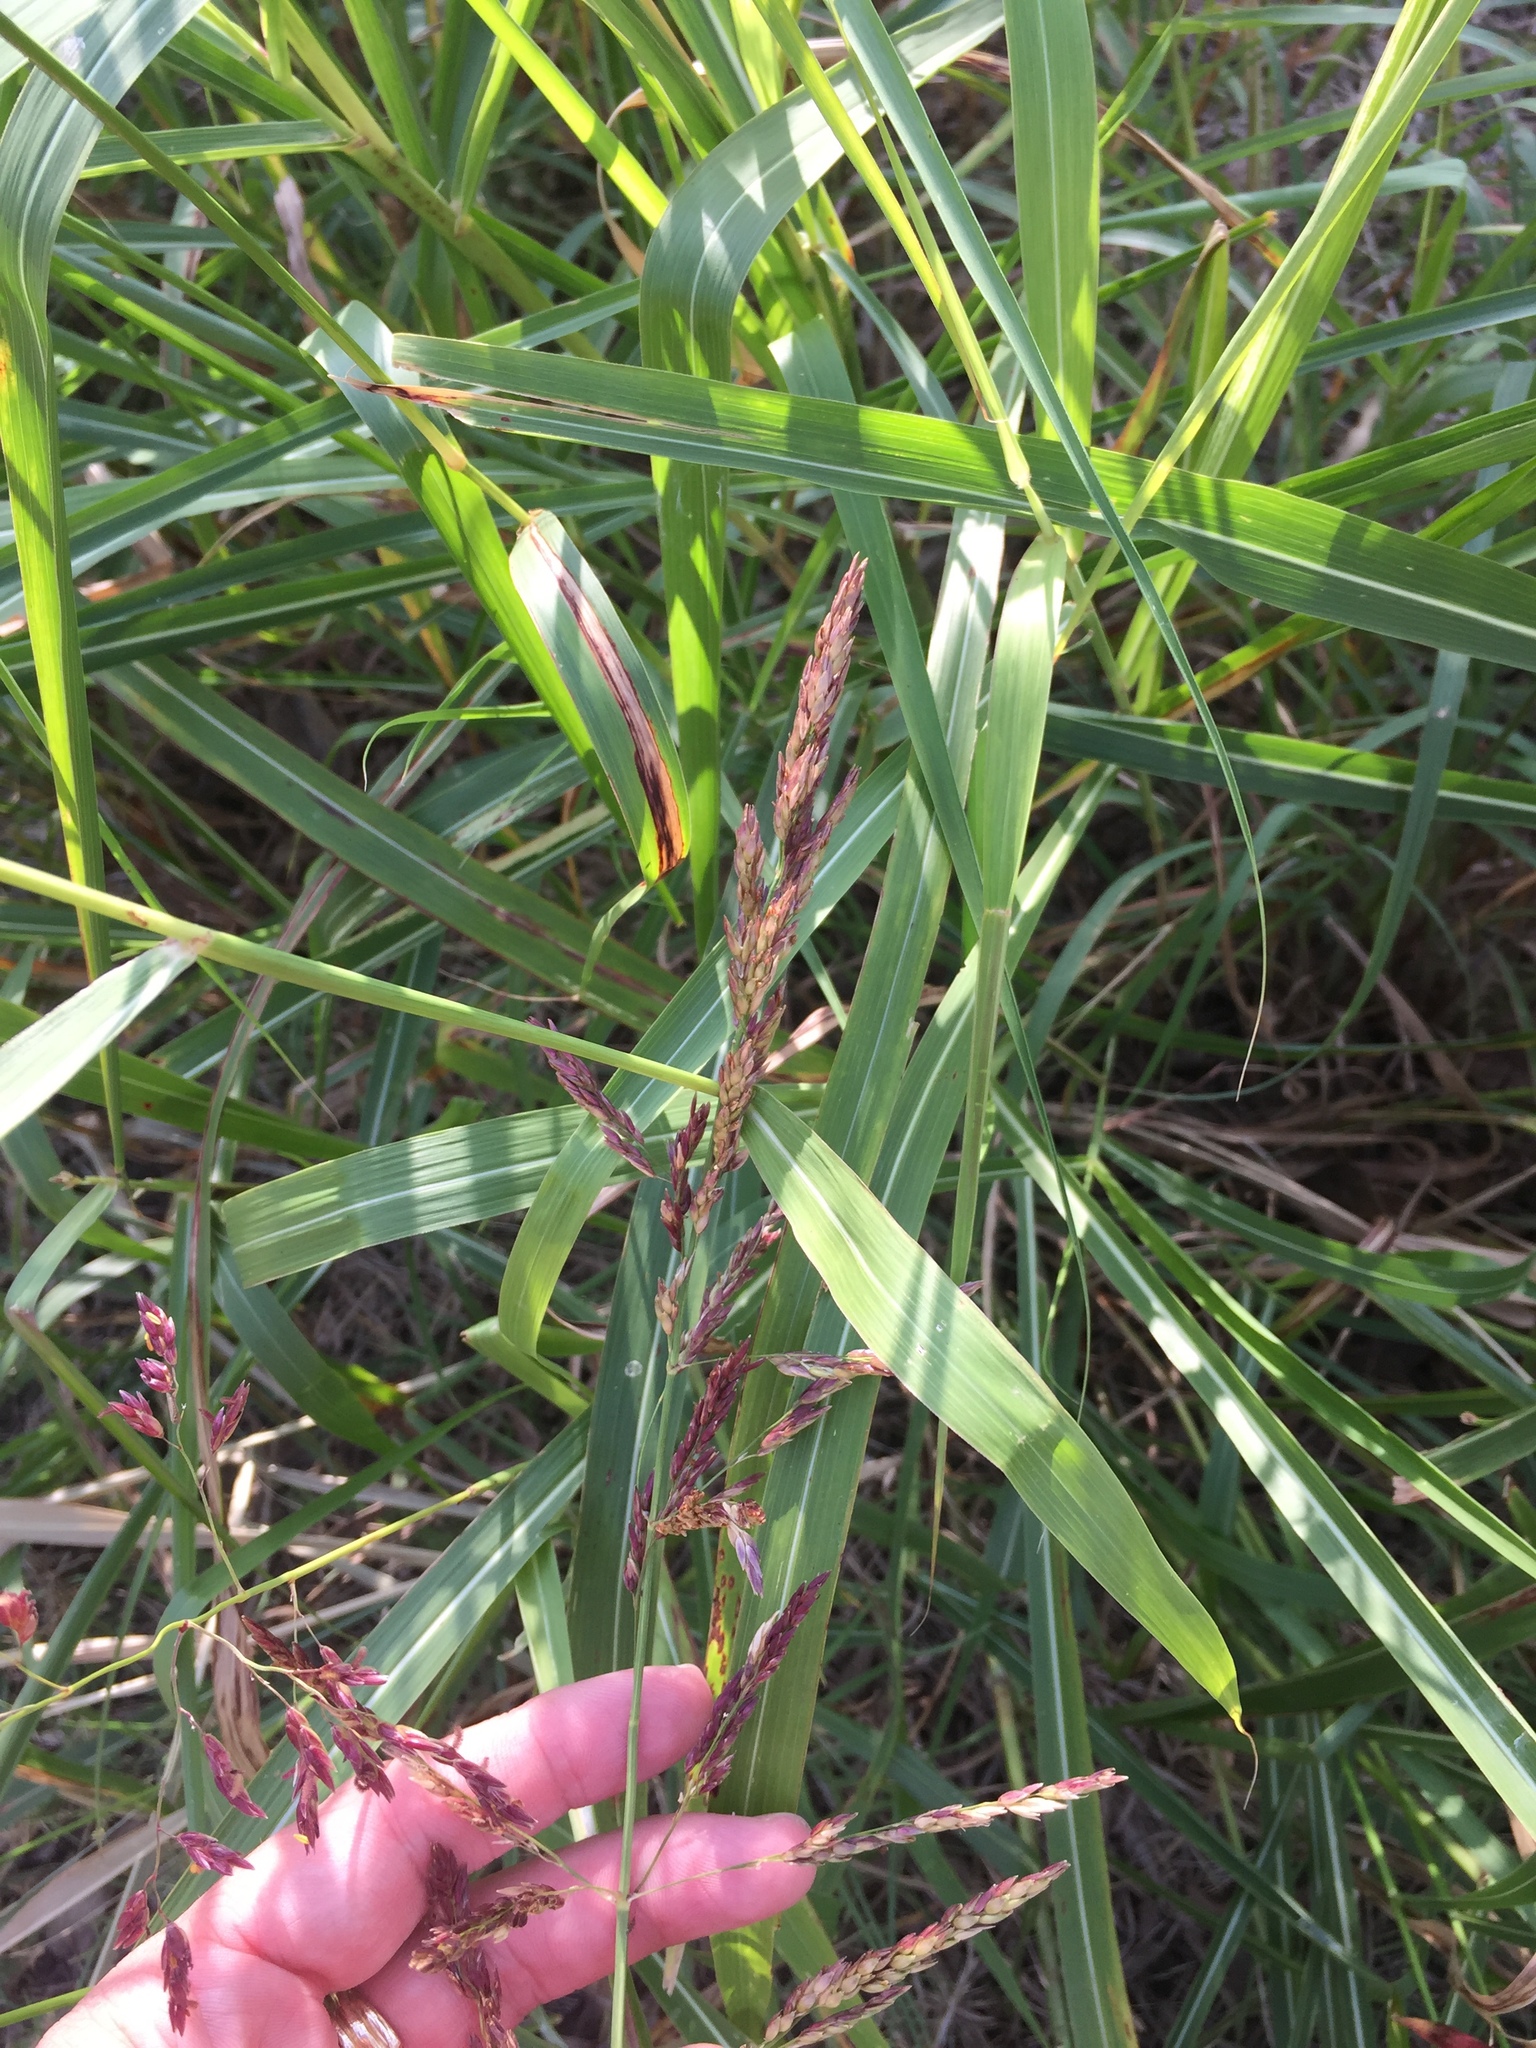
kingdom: Plantae
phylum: Tracheophyta
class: Liliopsida
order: Poales
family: Poaceae
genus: Sorghum
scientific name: Sorghum halepense
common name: Johnson-grass
